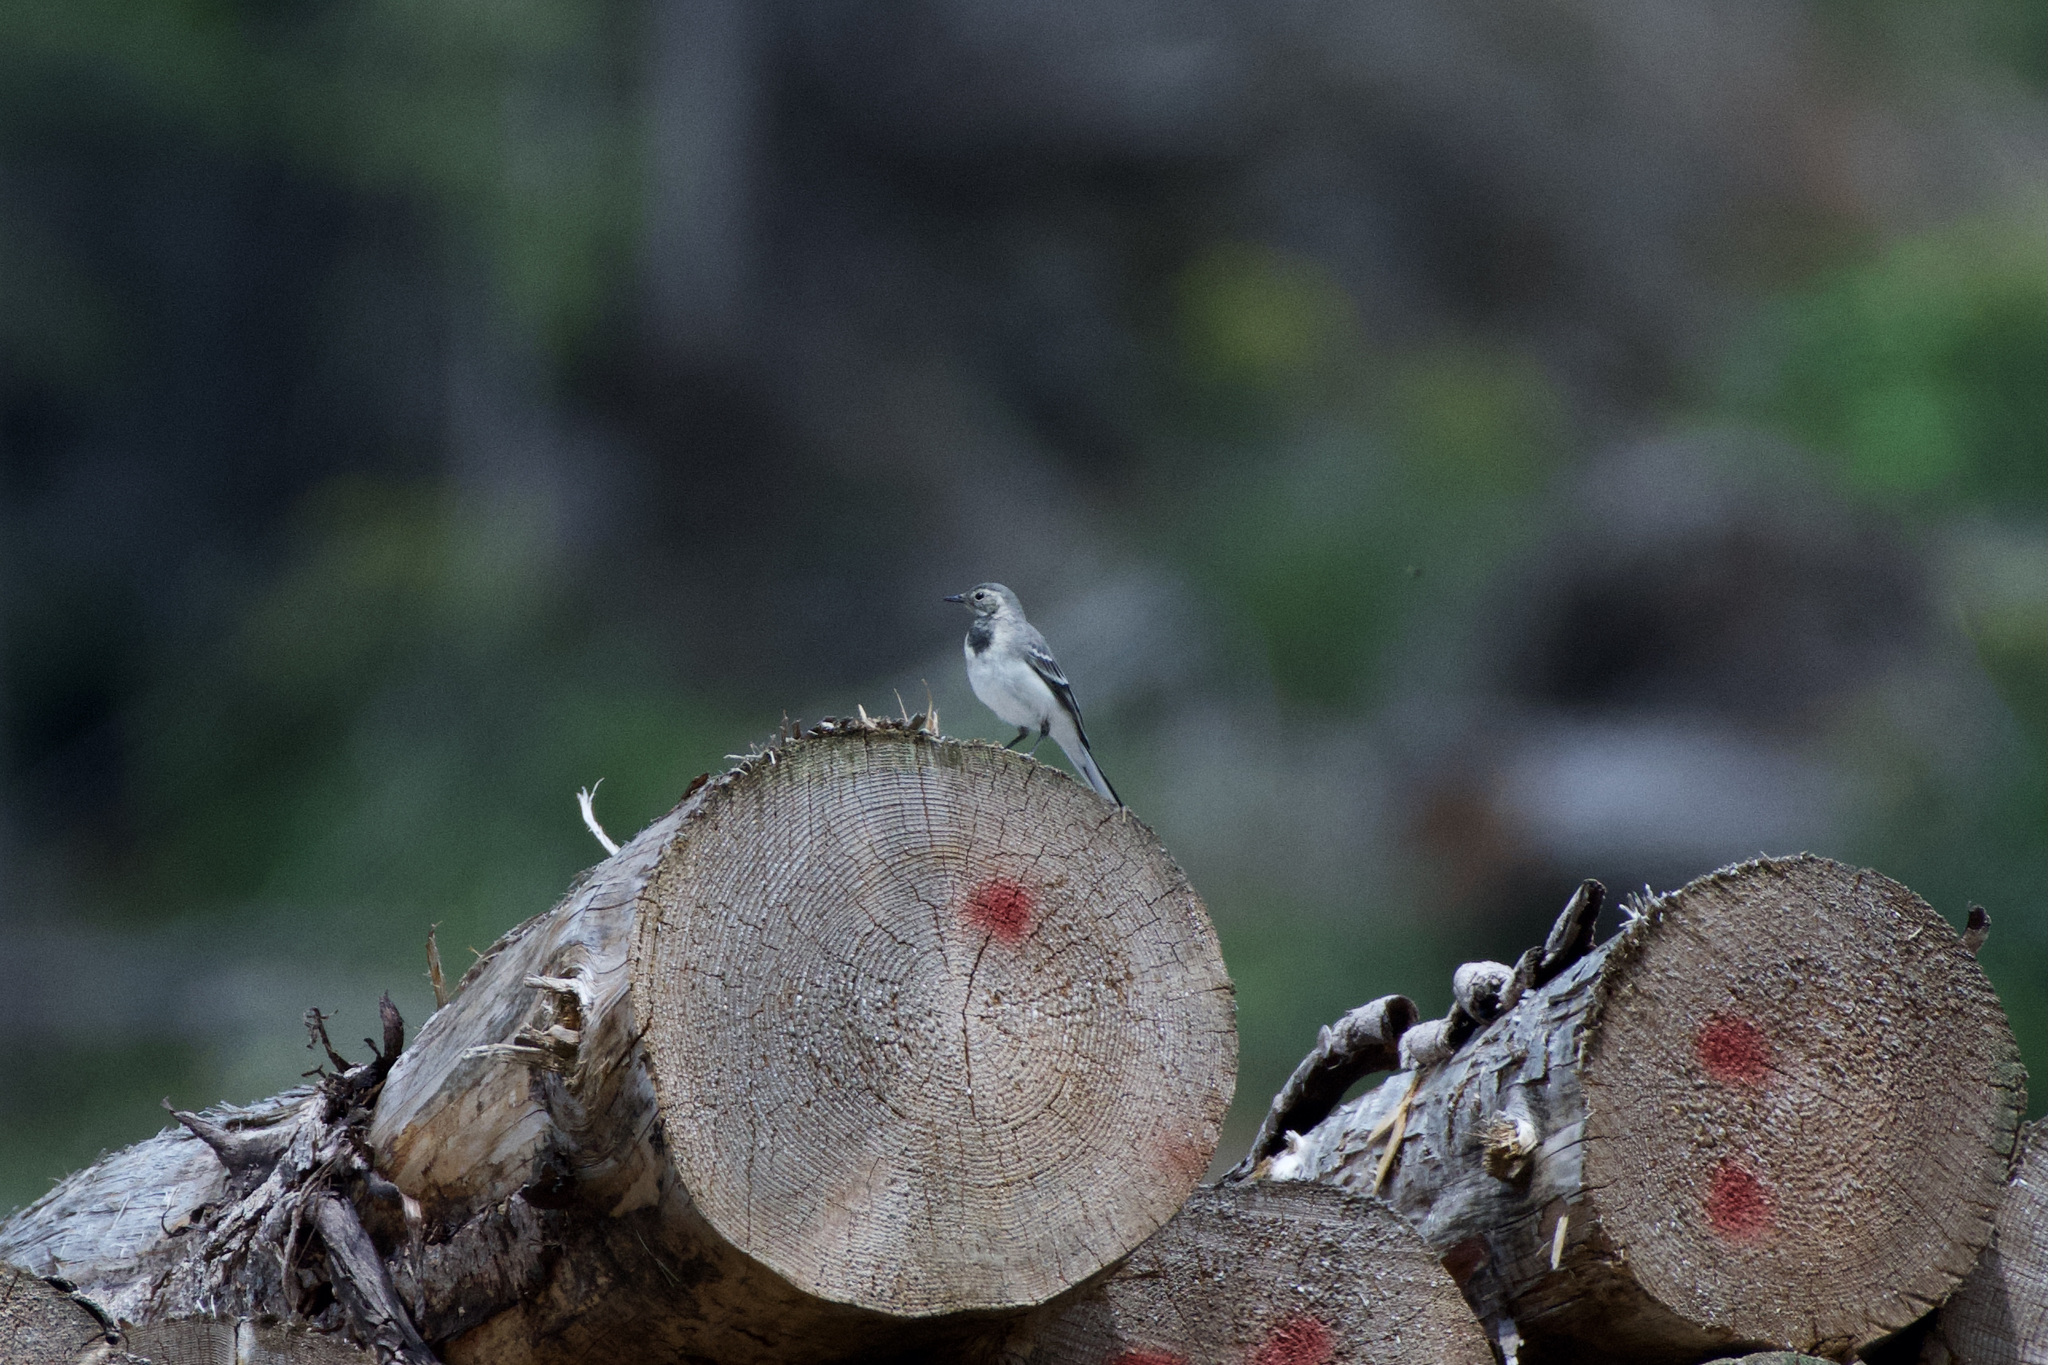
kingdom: Animalia
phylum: Chordata
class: Aves
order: Passeriformes
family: Motacillidae
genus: Motacilla
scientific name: Motacilla alba
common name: White wagtail
